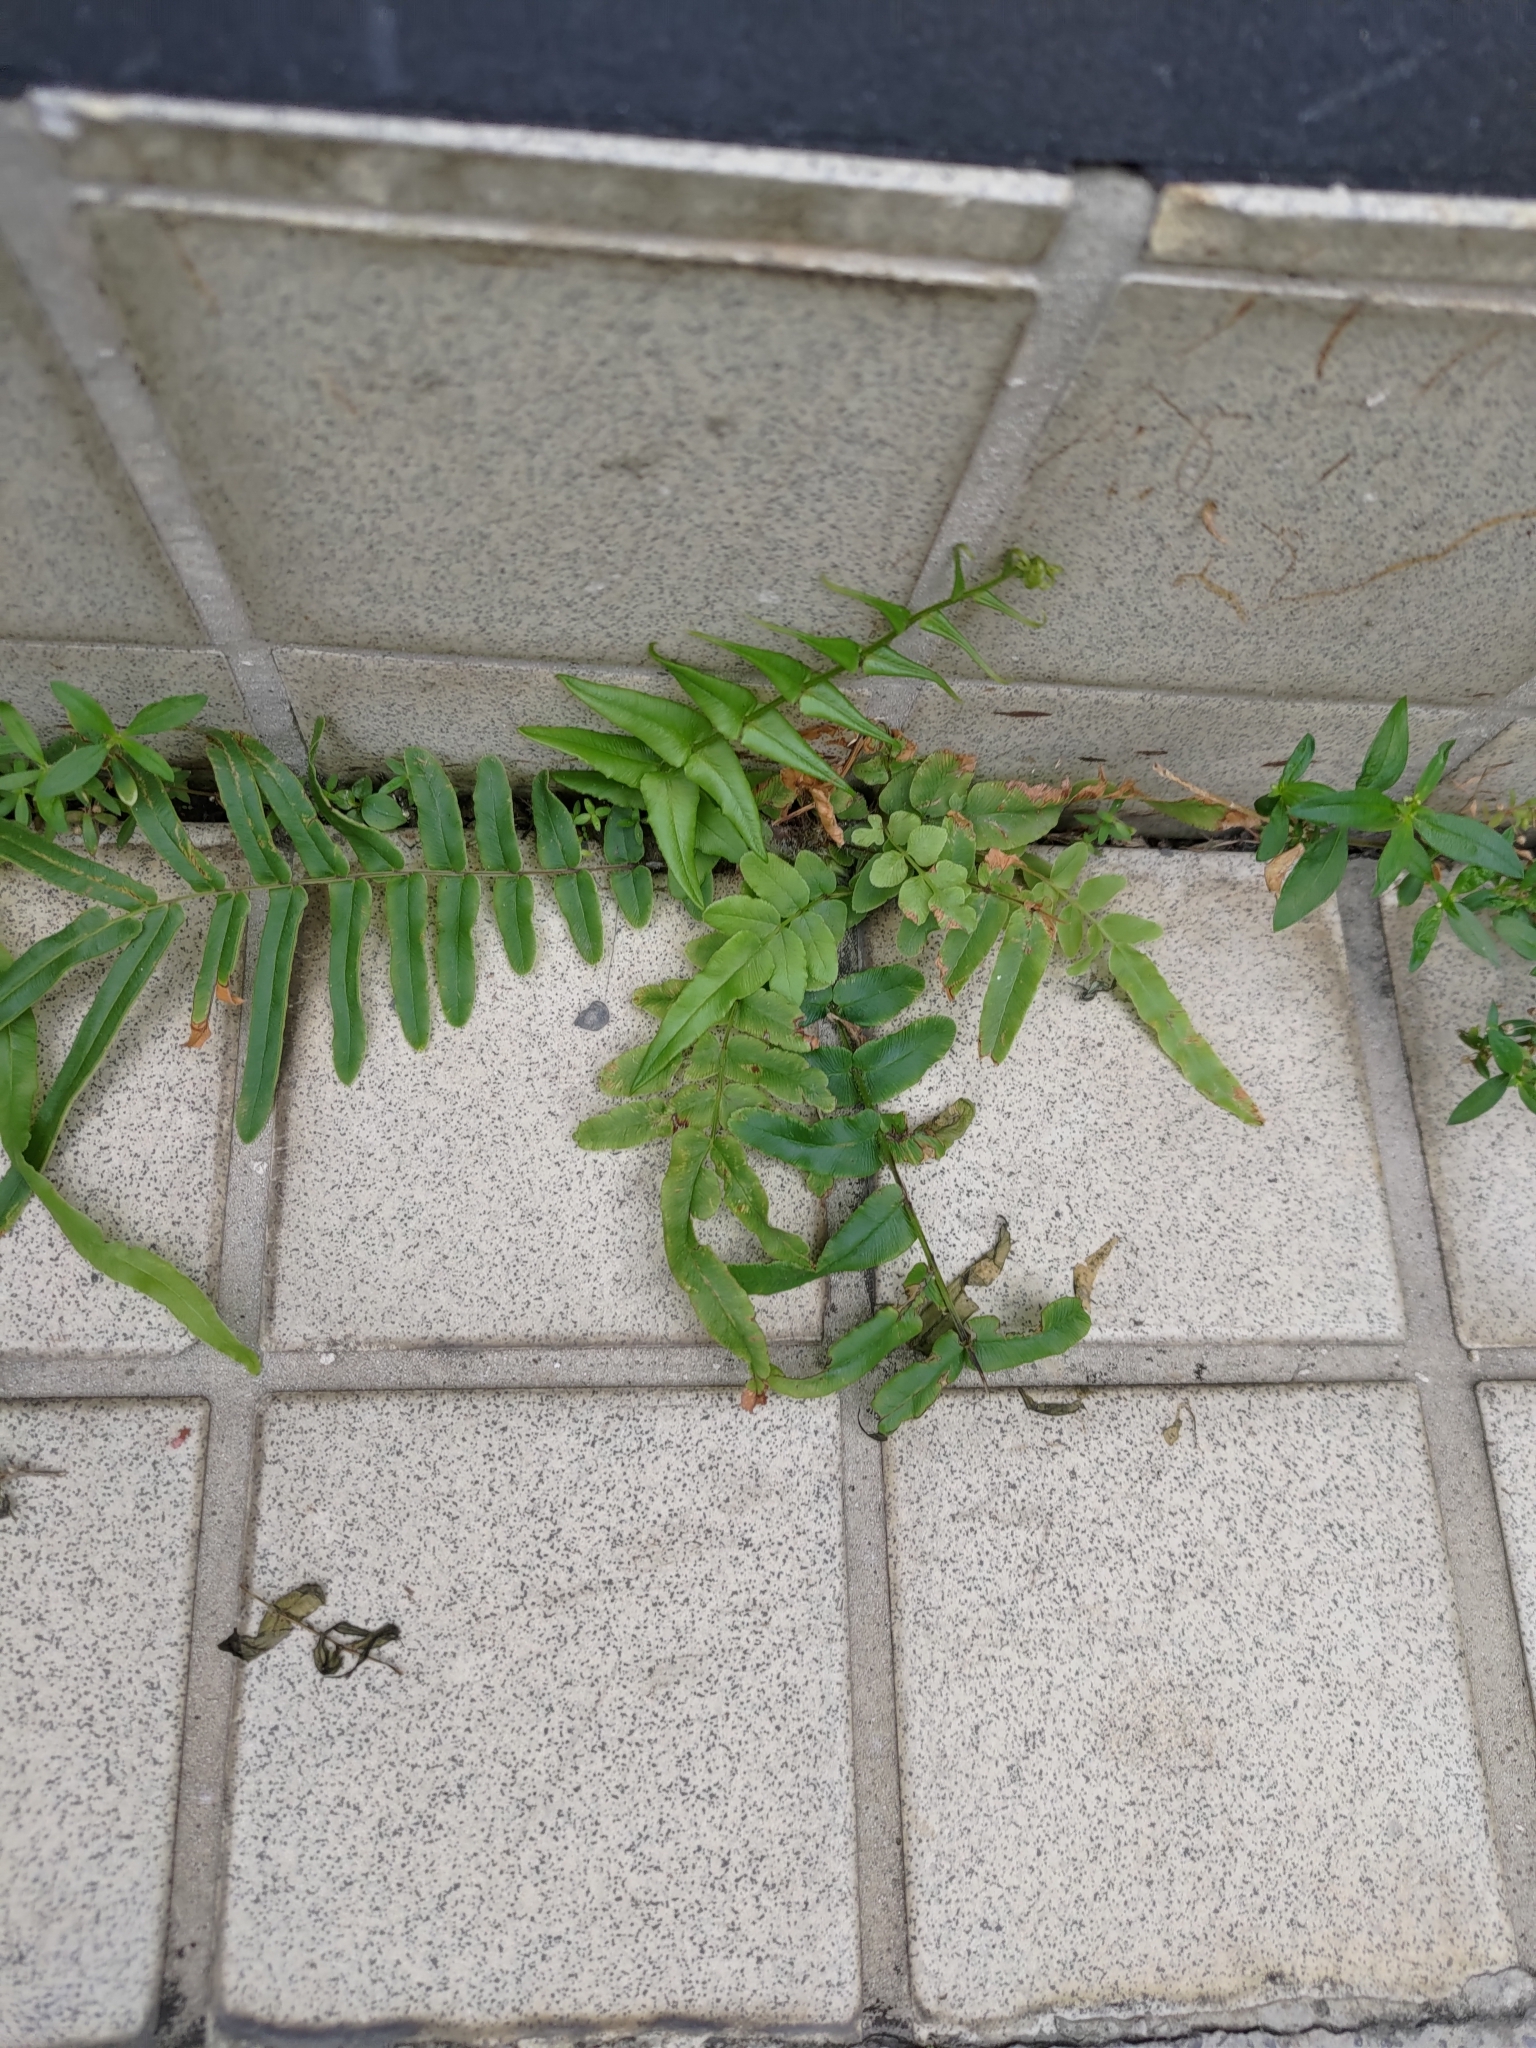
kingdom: Plantae
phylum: Tracheophyta
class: Polypodiopsida
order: Polypodiales
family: Pteridaceae
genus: Pteris
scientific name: Pteris vittata
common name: Ladder brake
